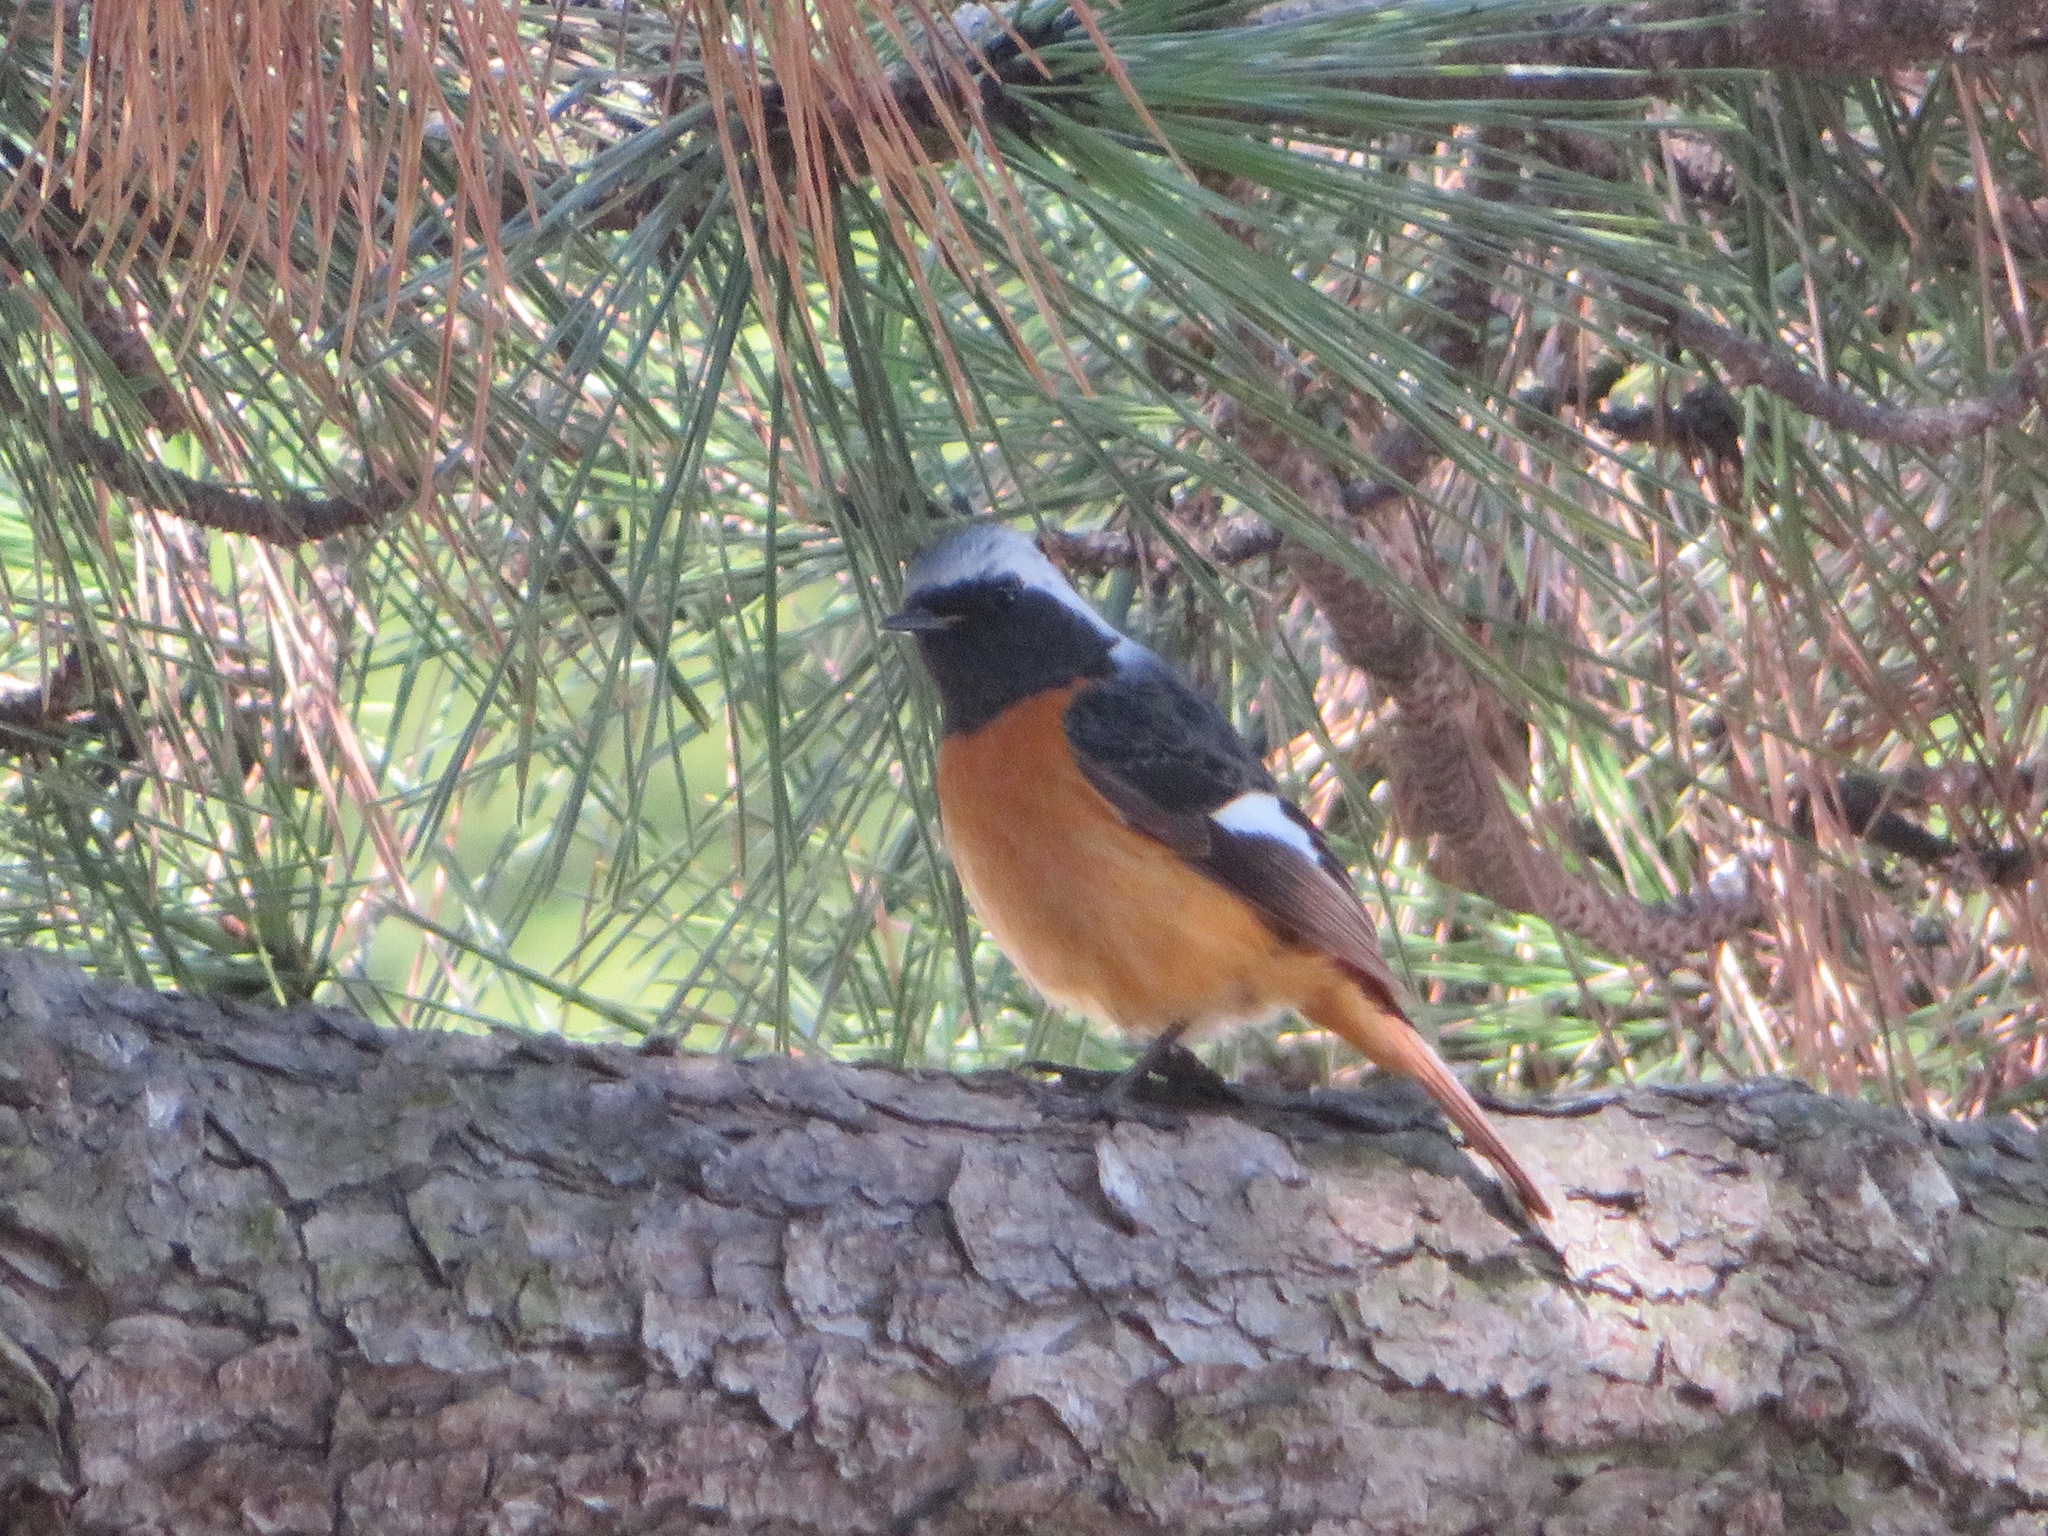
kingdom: Animalia
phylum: Chordata
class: Aves
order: Passeriformes
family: Muscicapidae
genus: Phoenicurus
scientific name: Phoenicurus auroreus
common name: Daurian redstart
